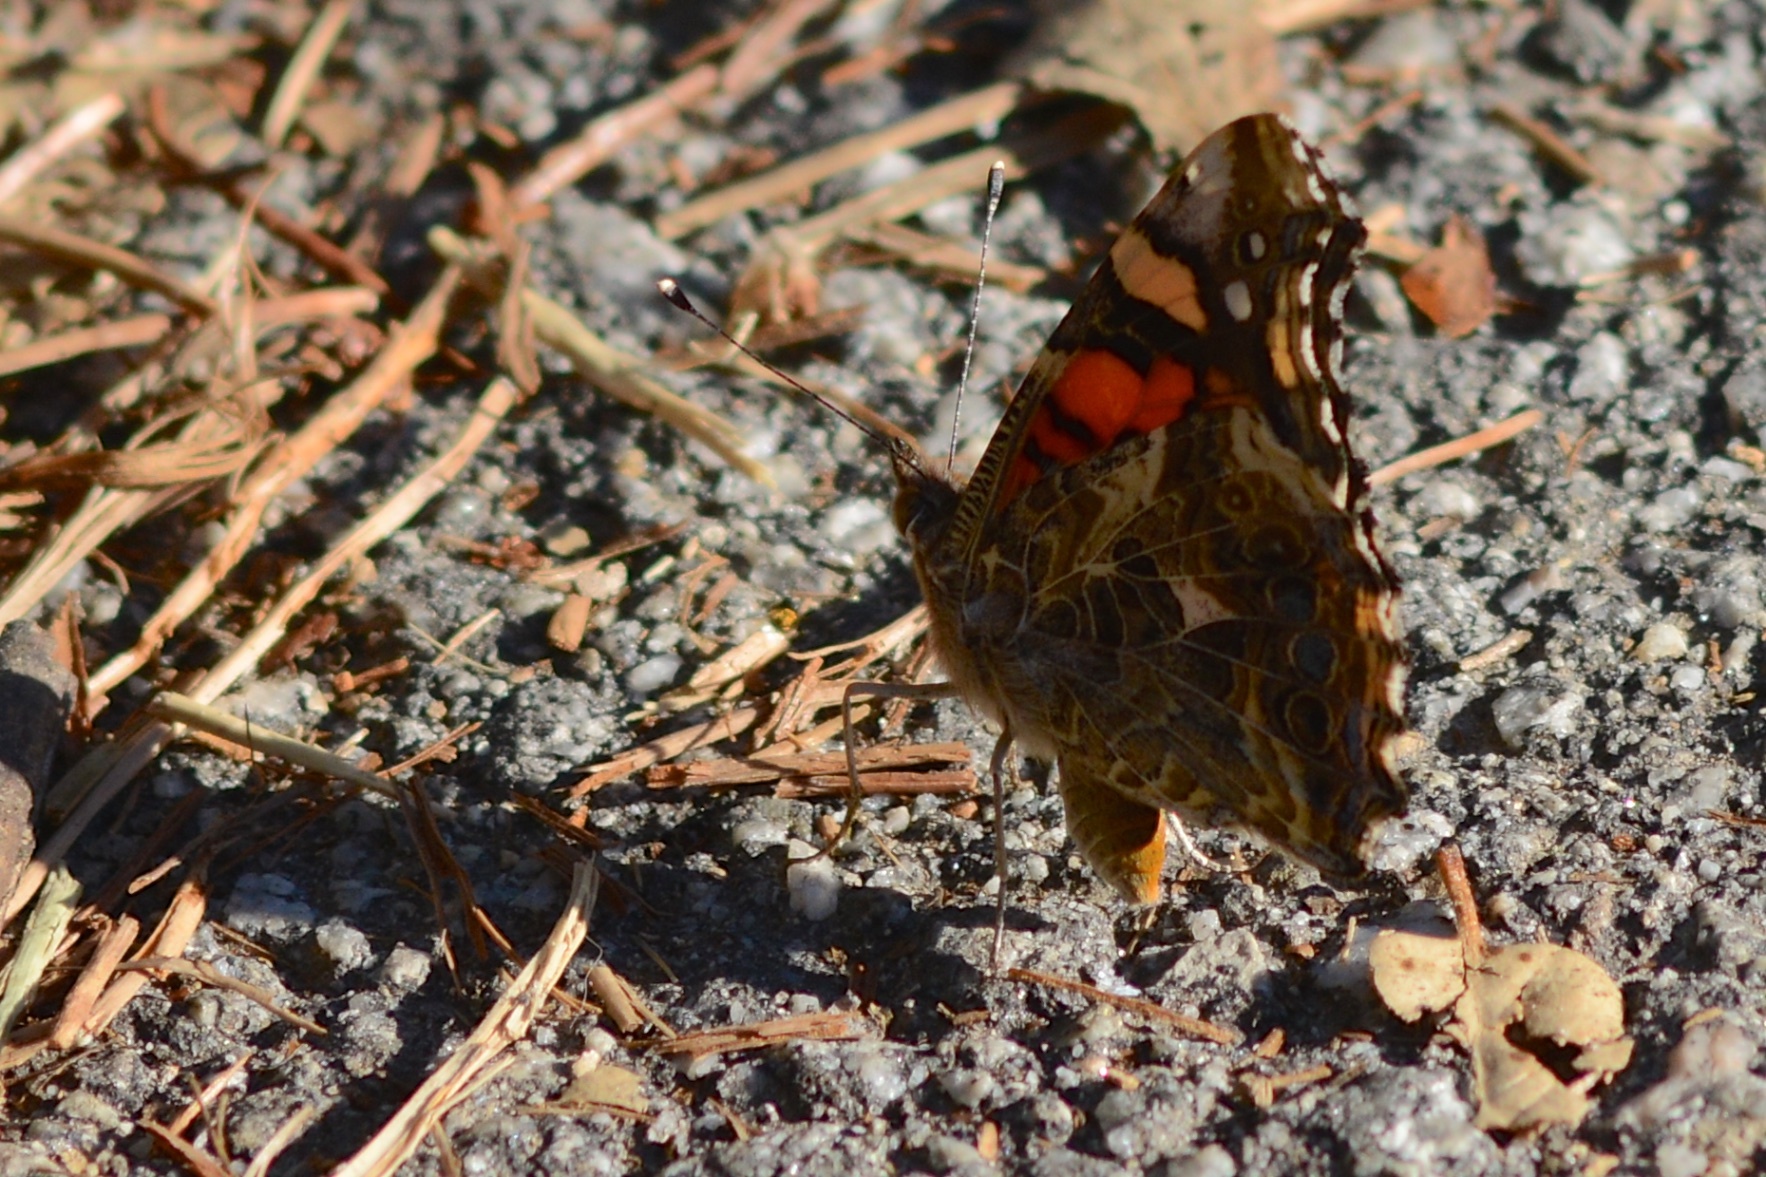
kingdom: Animalia
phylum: Arthropoda
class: Insecta
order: Lepidoptera
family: Nymphalidae
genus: Vanessa
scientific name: Vanessa annabella
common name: West coast lady
